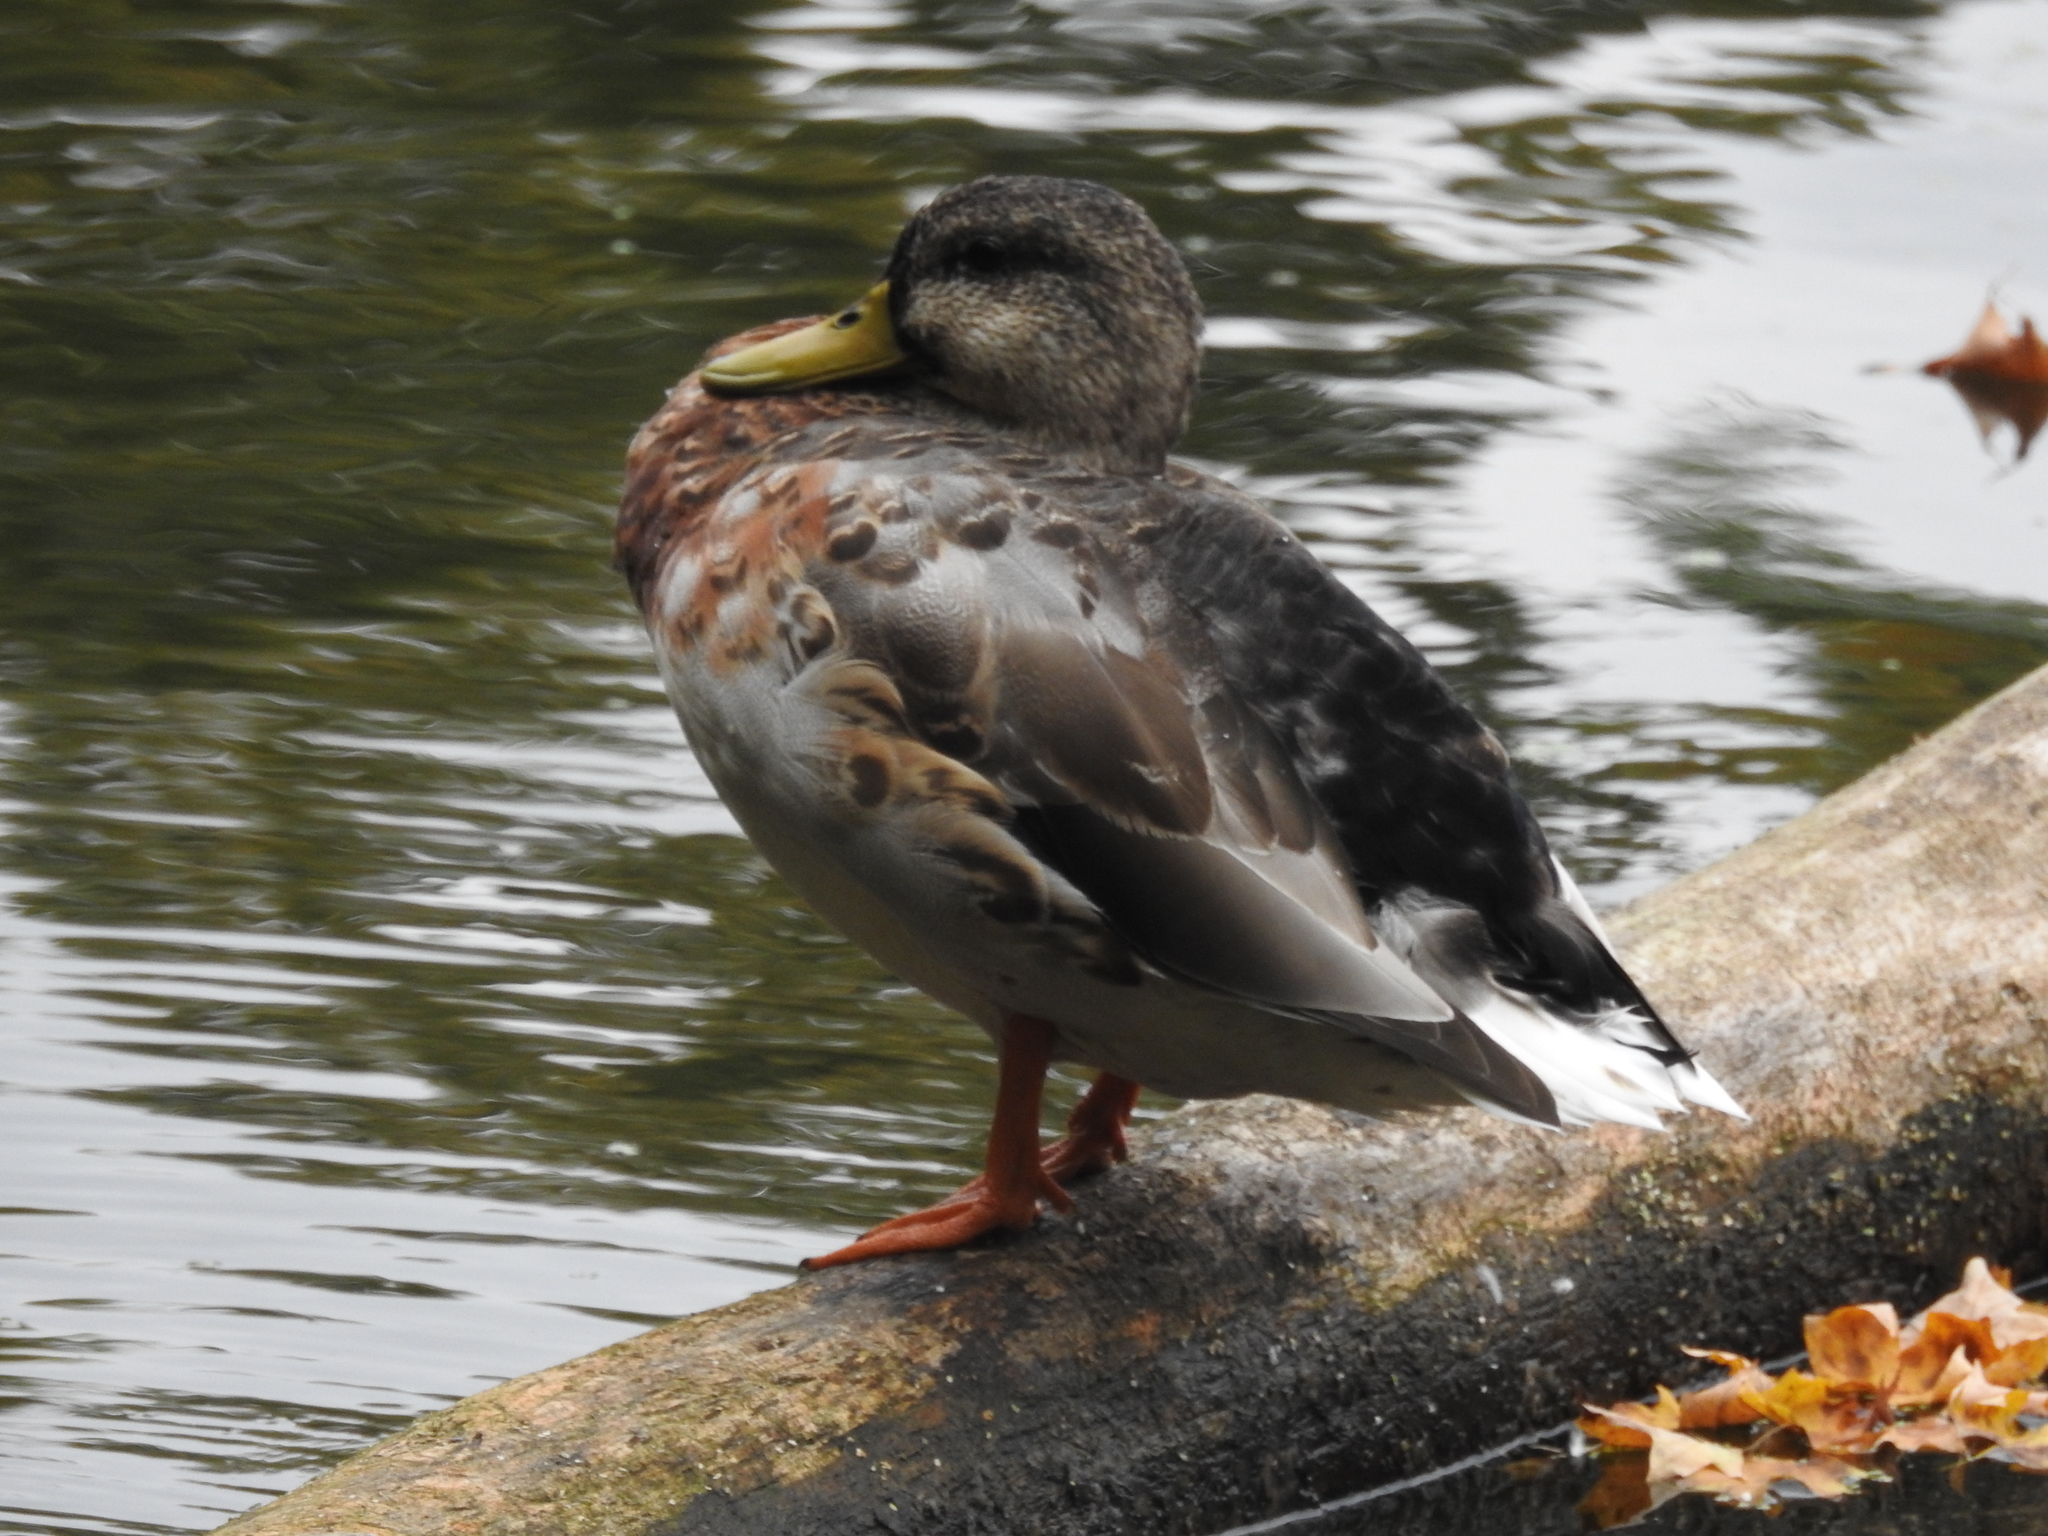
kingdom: Animalia
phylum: Chordata
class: Aves
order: Anseriformes
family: Anatidae
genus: Anas
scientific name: Anas platyrhynchos
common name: Mallard
